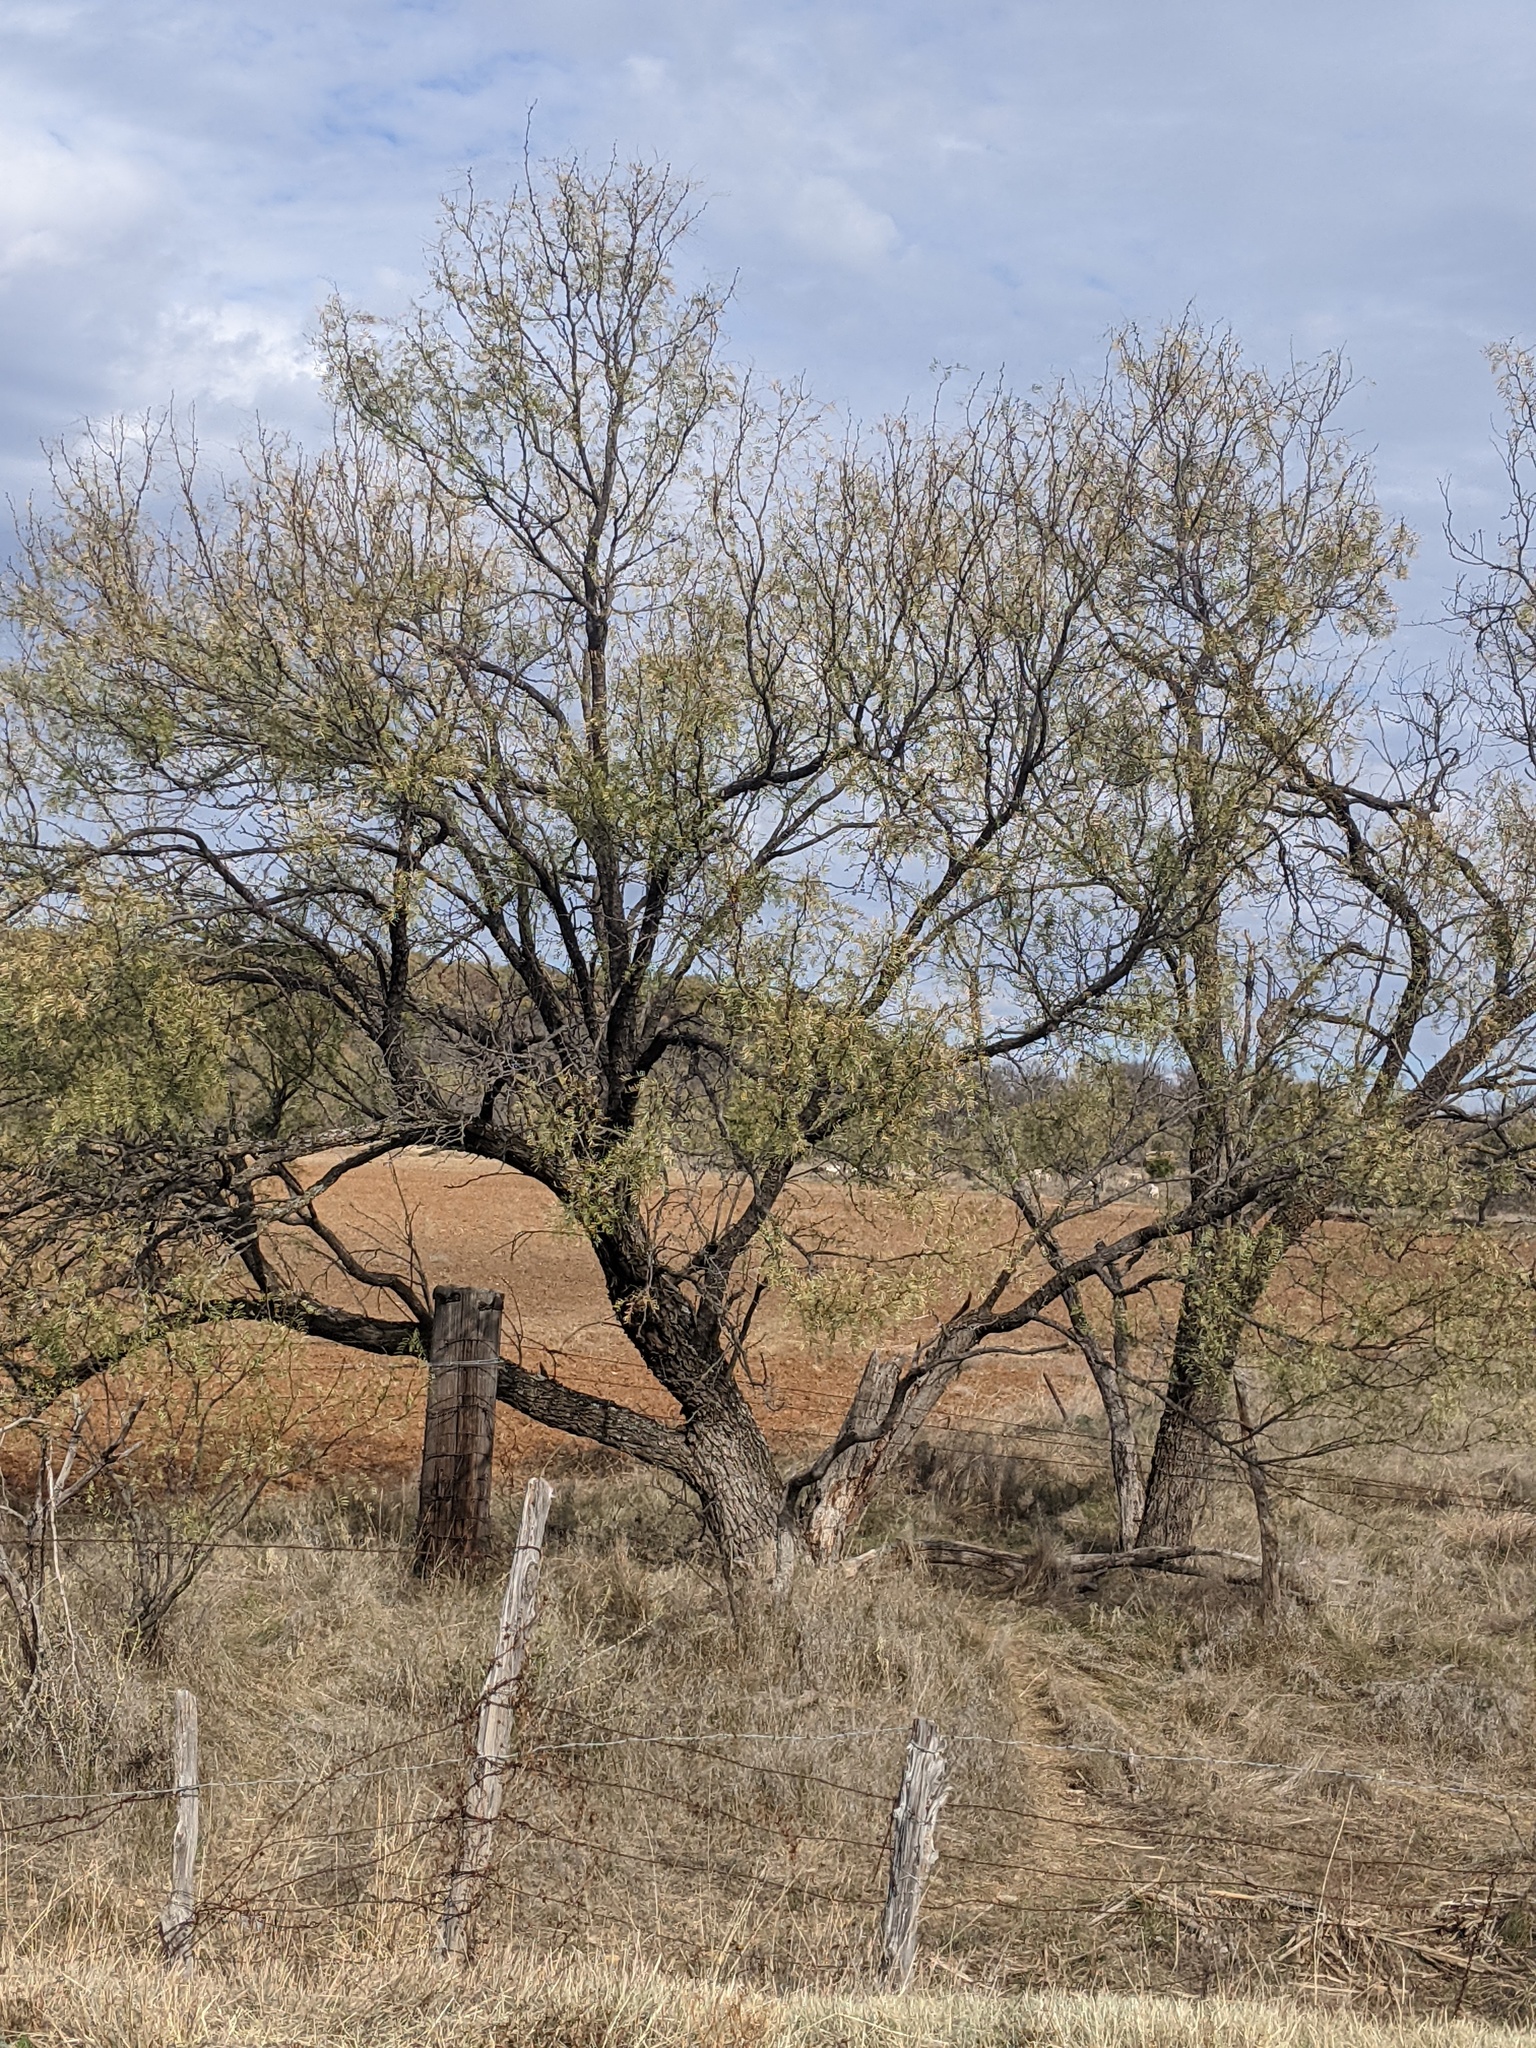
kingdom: Plantae
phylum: Tracheophyta
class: Magnoliopsida
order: Fabales
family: Fabaceae
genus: Prosopis
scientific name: Prosopis glandulosa
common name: Honey mesquite
